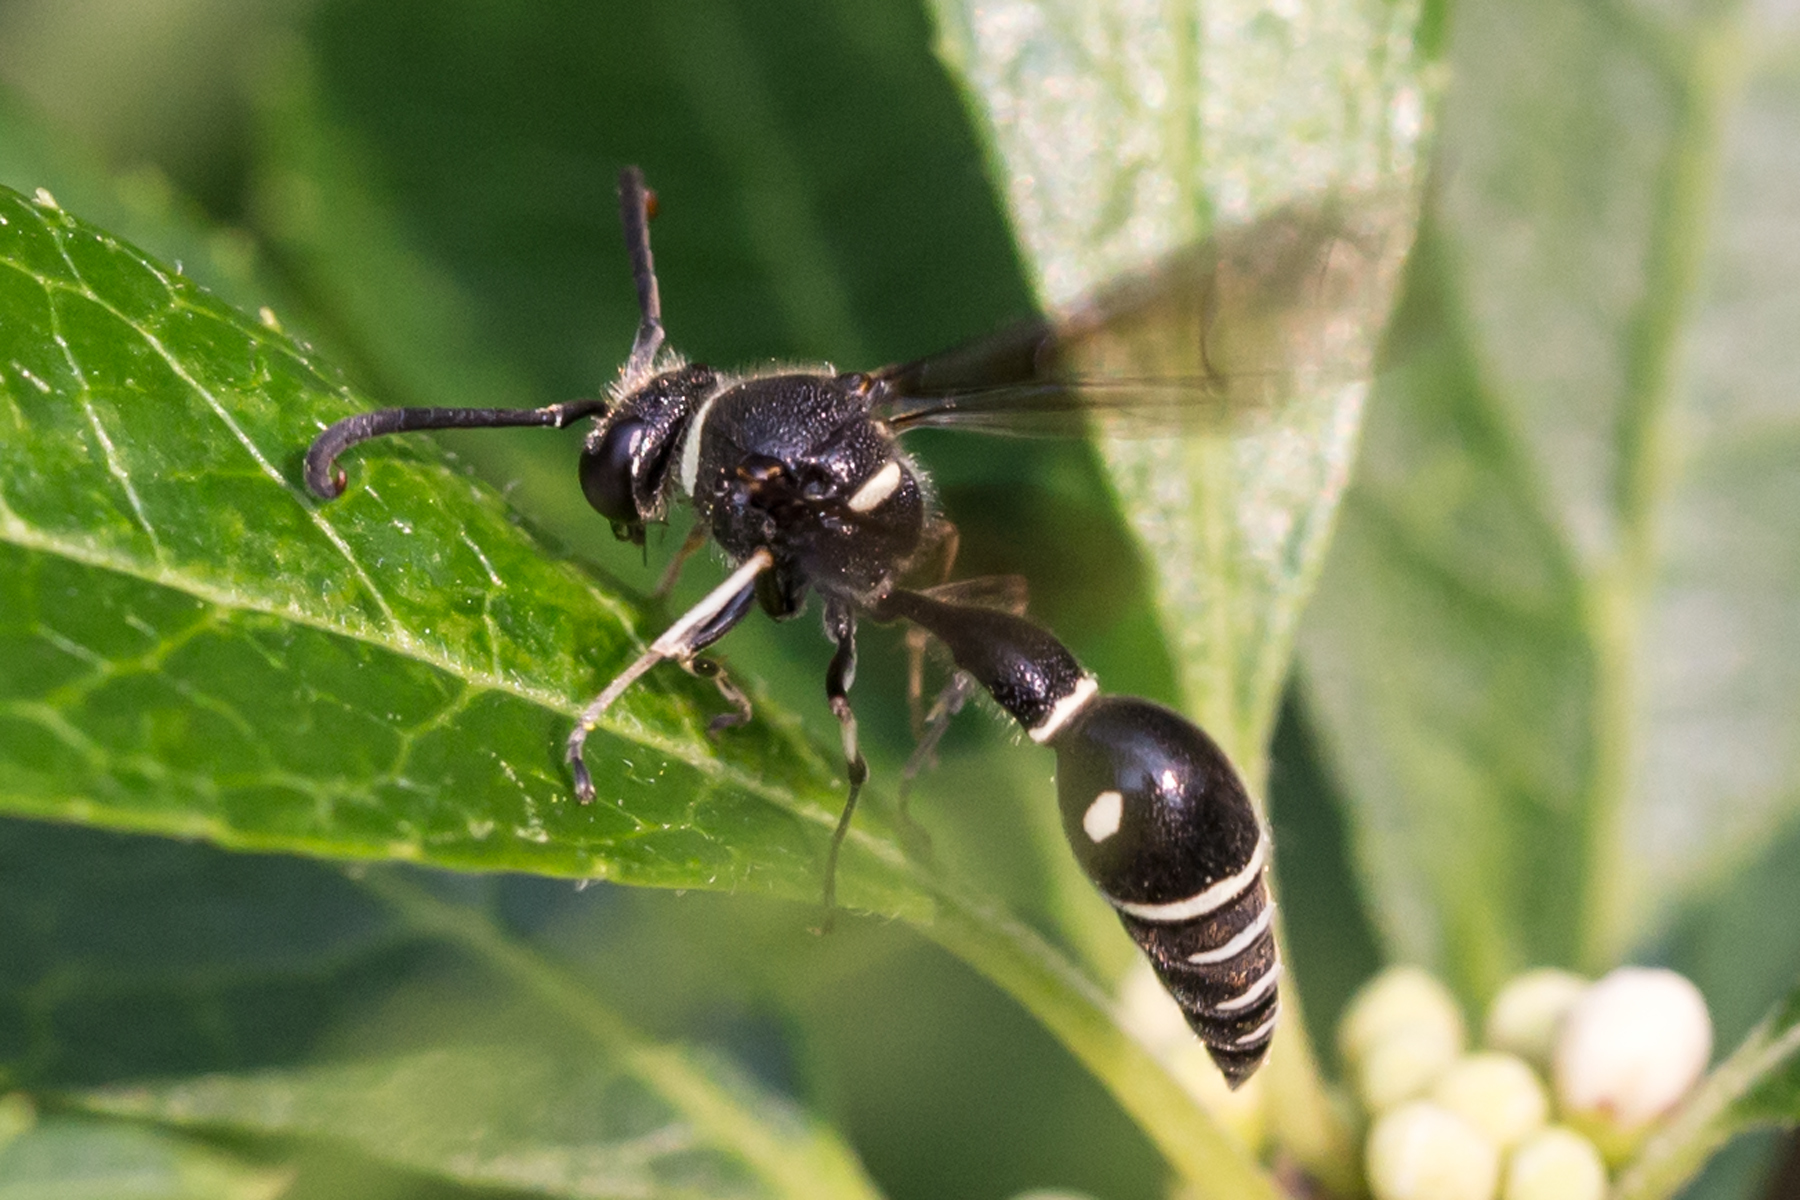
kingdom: Animalia
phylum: Arthropoda
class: Insecta
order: Hymenoptera
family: Vespidae
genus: Eumenes
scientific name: Eumenes fraternus
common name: Fraternal potter wasp
